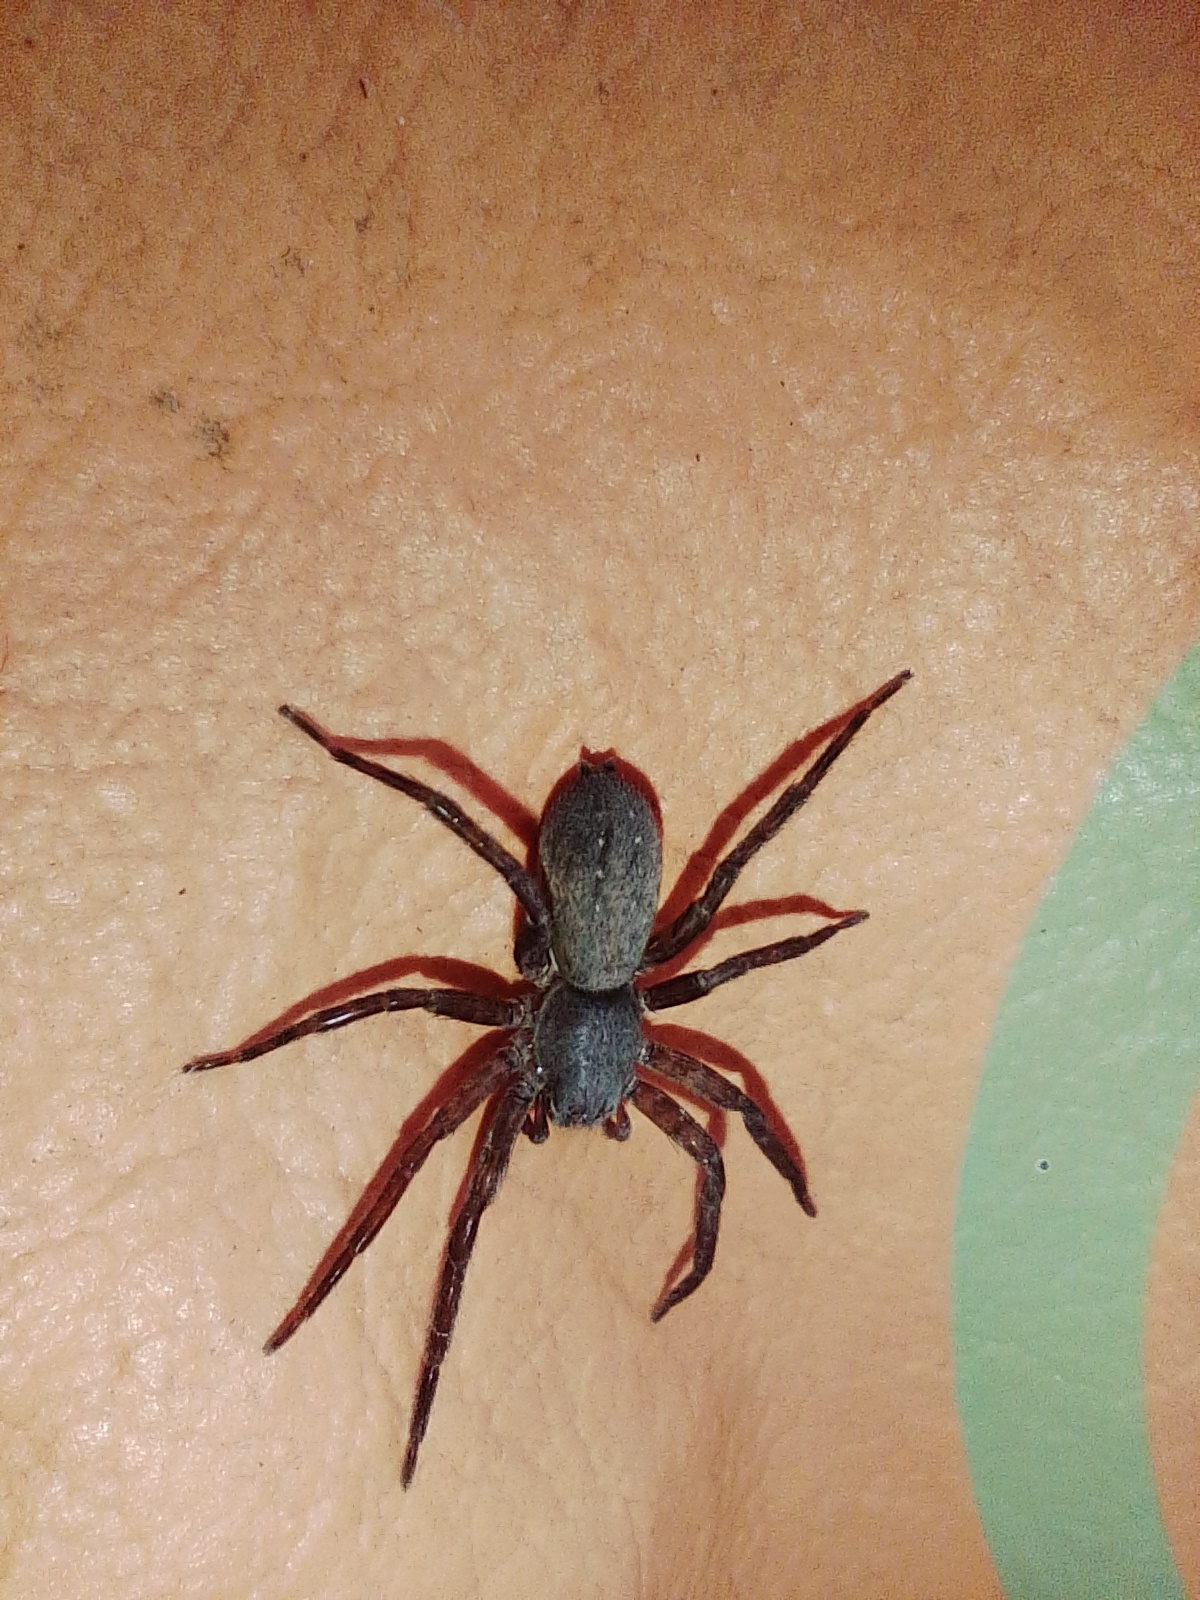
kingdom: Animalia
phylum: Arthropoda
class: Arachnida
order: Araneae
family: Ctenidae
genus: Asthenoctenus
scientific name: Asthenoctenus borellii
